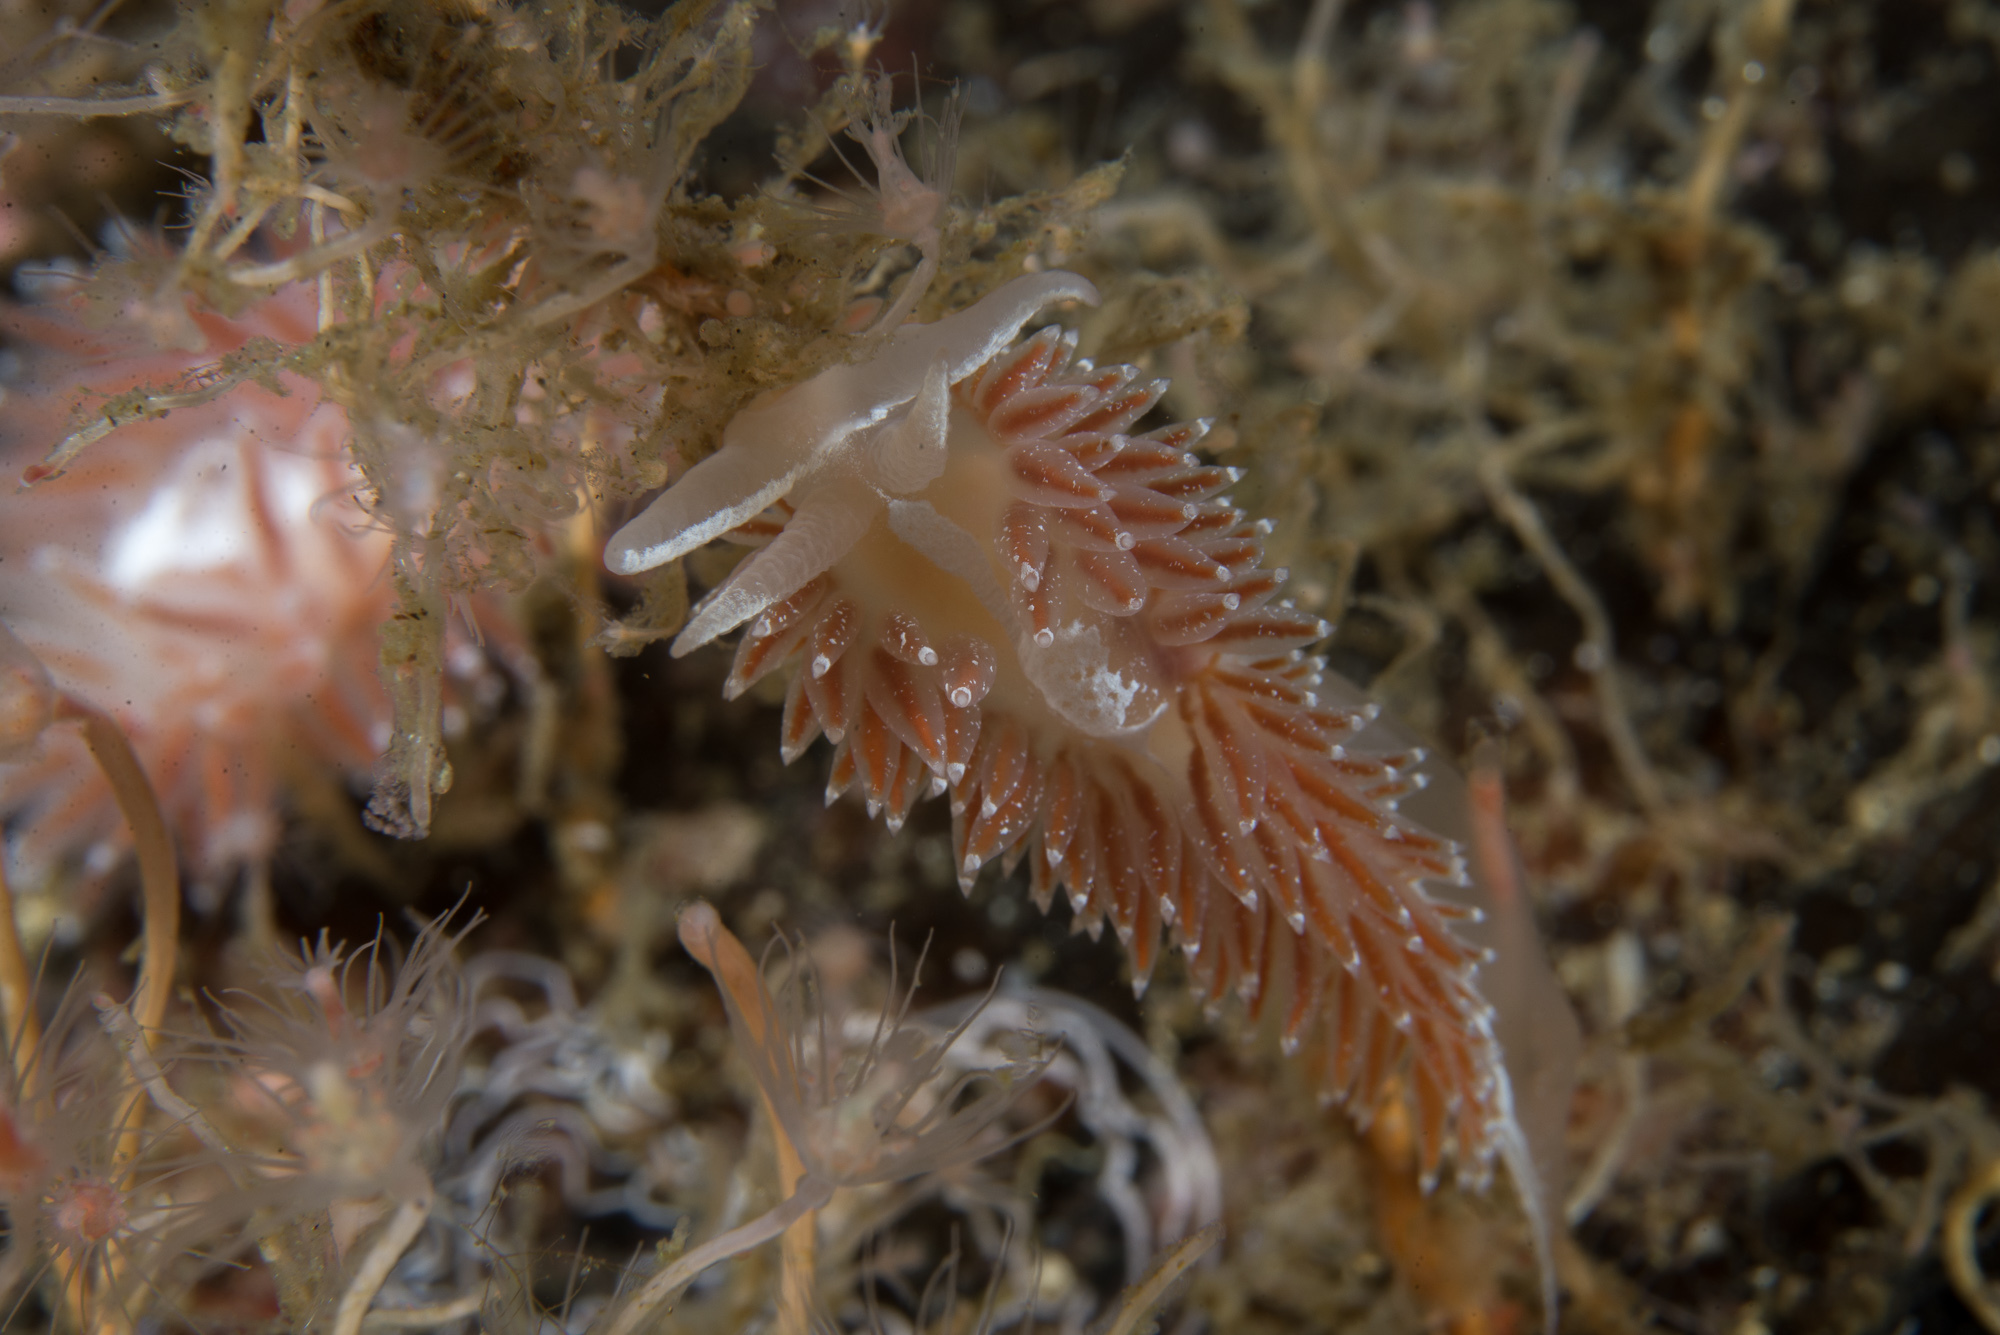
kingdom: Animalia
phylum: Mollusca
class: Gastropoda
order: Nudibranchia
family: Coryphellidae
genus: Coryphella
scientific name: Coryphella monicae
